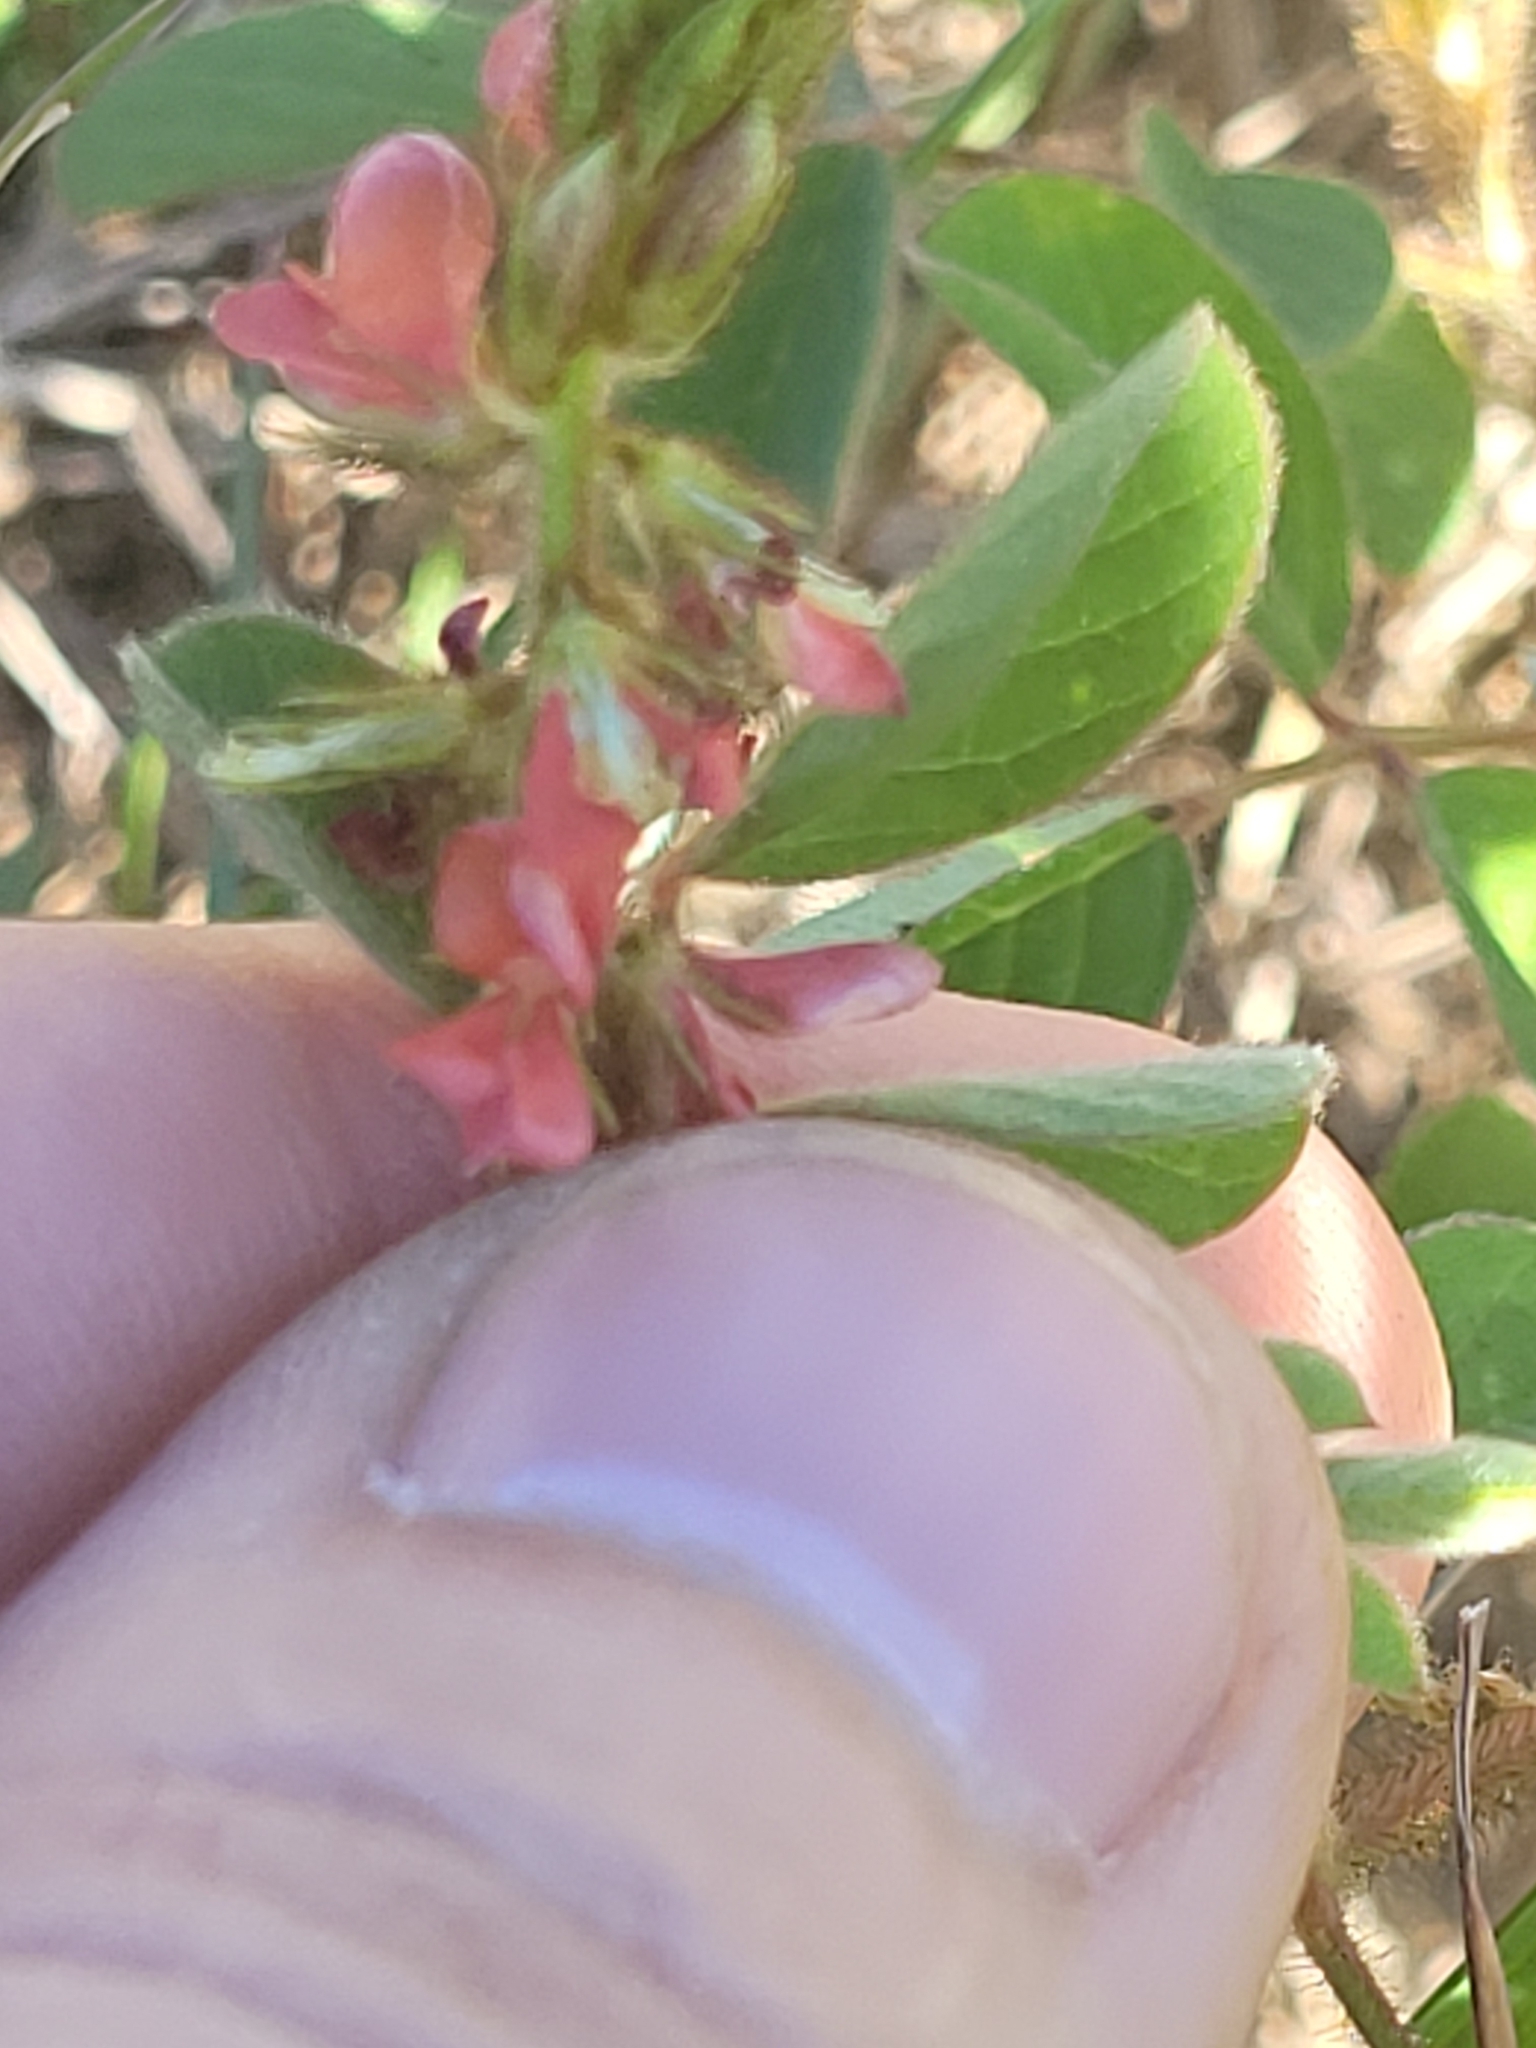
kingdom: Plantae
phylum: Tracheophyta
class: Magnoliopsida
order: Fabales
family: Fabaceae
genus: Indigofera
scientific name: Indigofera hirsuta
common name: Hairy indigo
